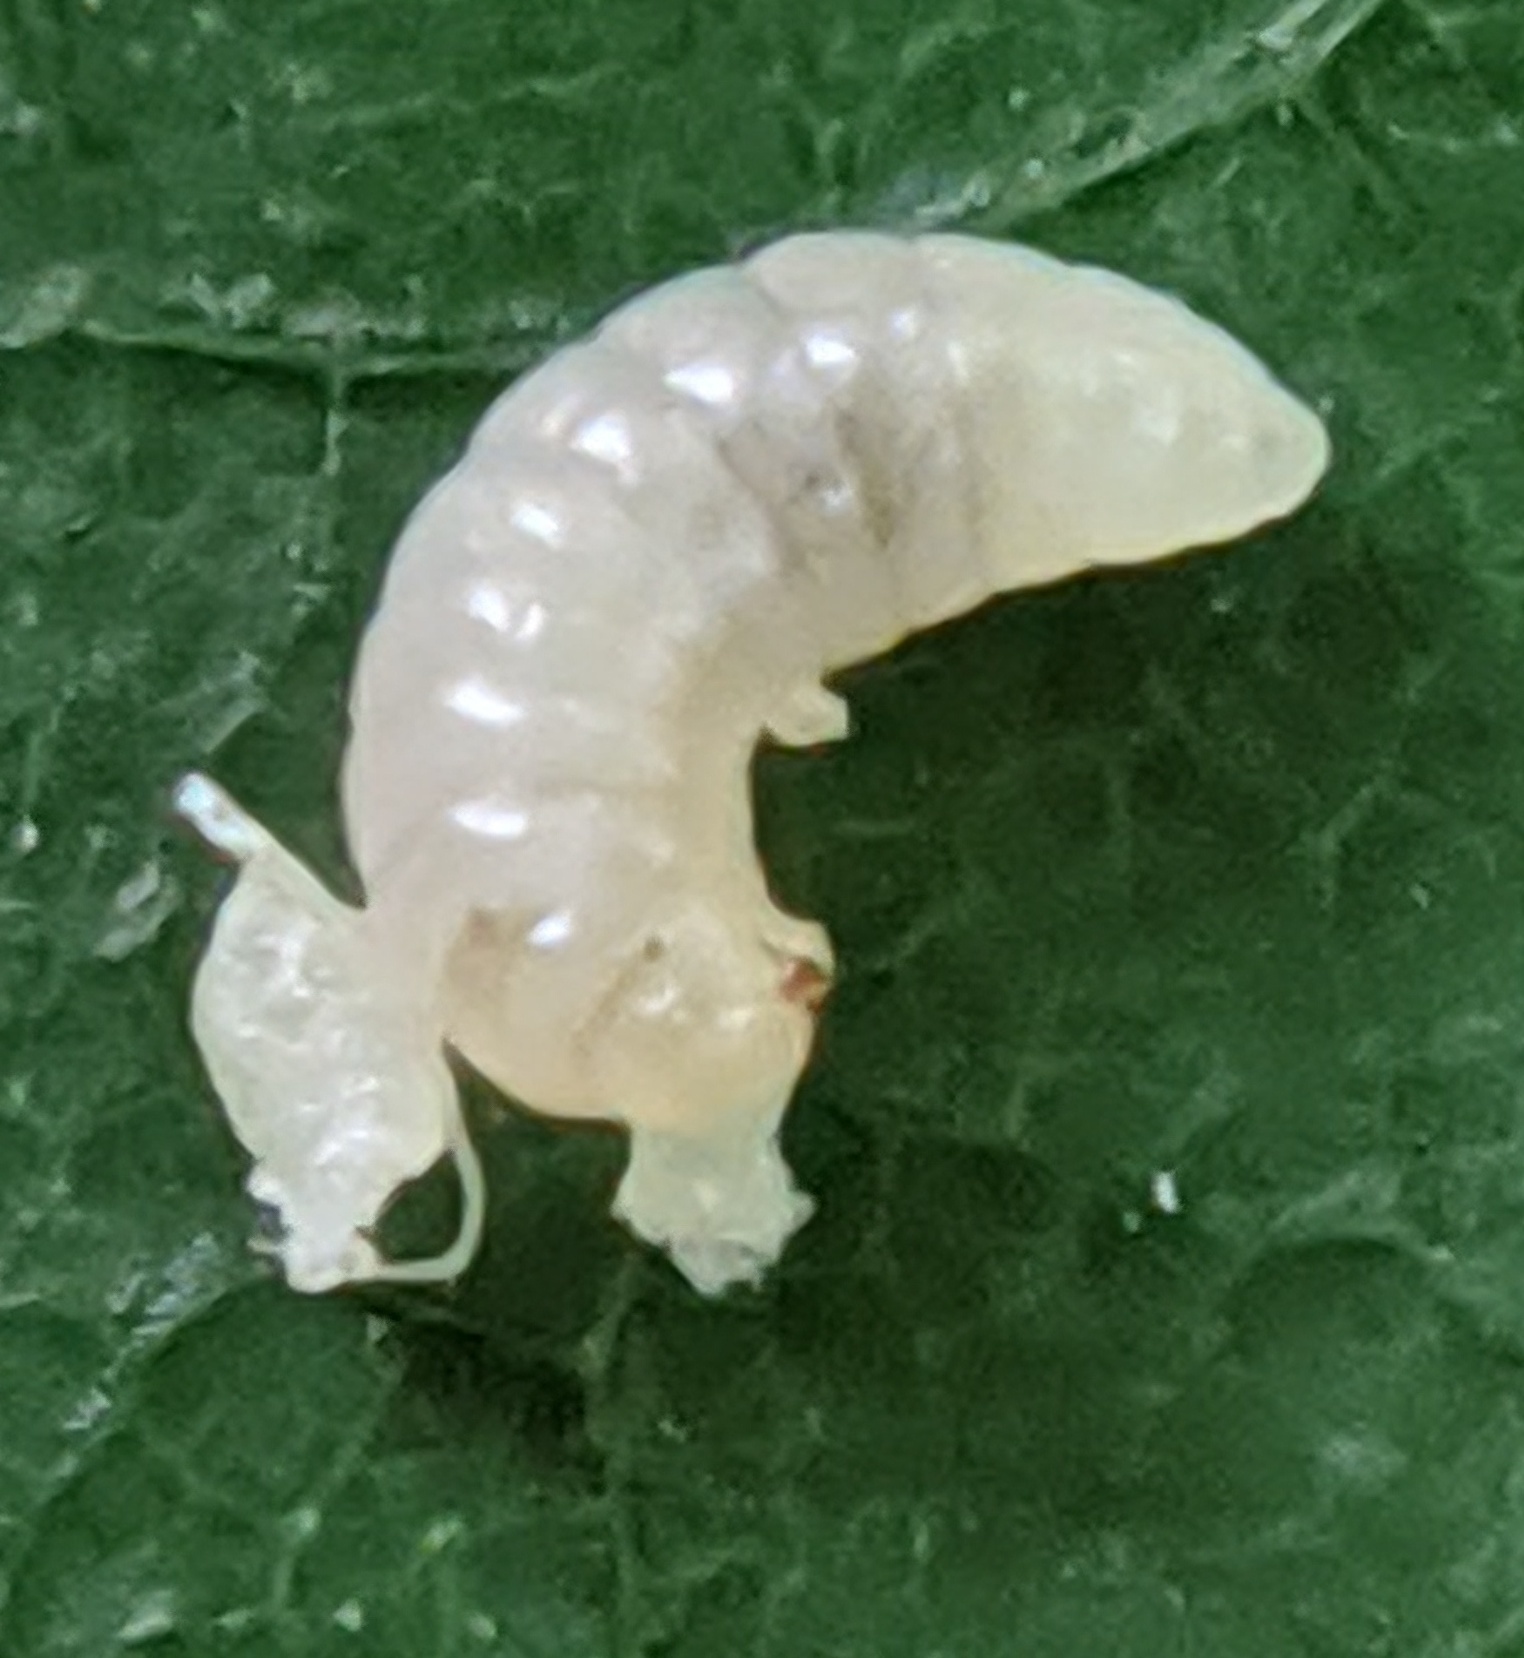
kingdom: Animalia
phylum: Arthropoda
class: Insecta
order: Hymenoptera
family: Cynipidae
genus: Acraspis
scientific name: Acraspis erinacei
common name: Hedgehog gall wasp
